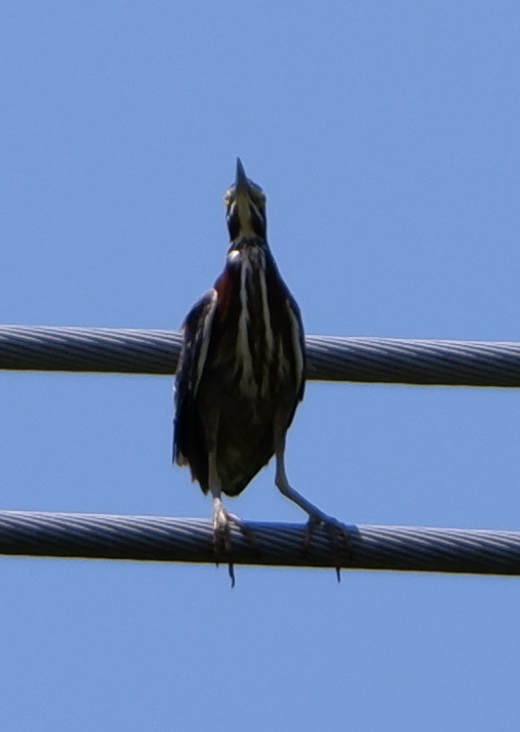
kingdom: Animalia
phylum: Chordata
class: Aves
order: Pelecaniformes
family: Ardeidae
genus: Butorides
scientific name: Butorides virescens
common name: Green heron
